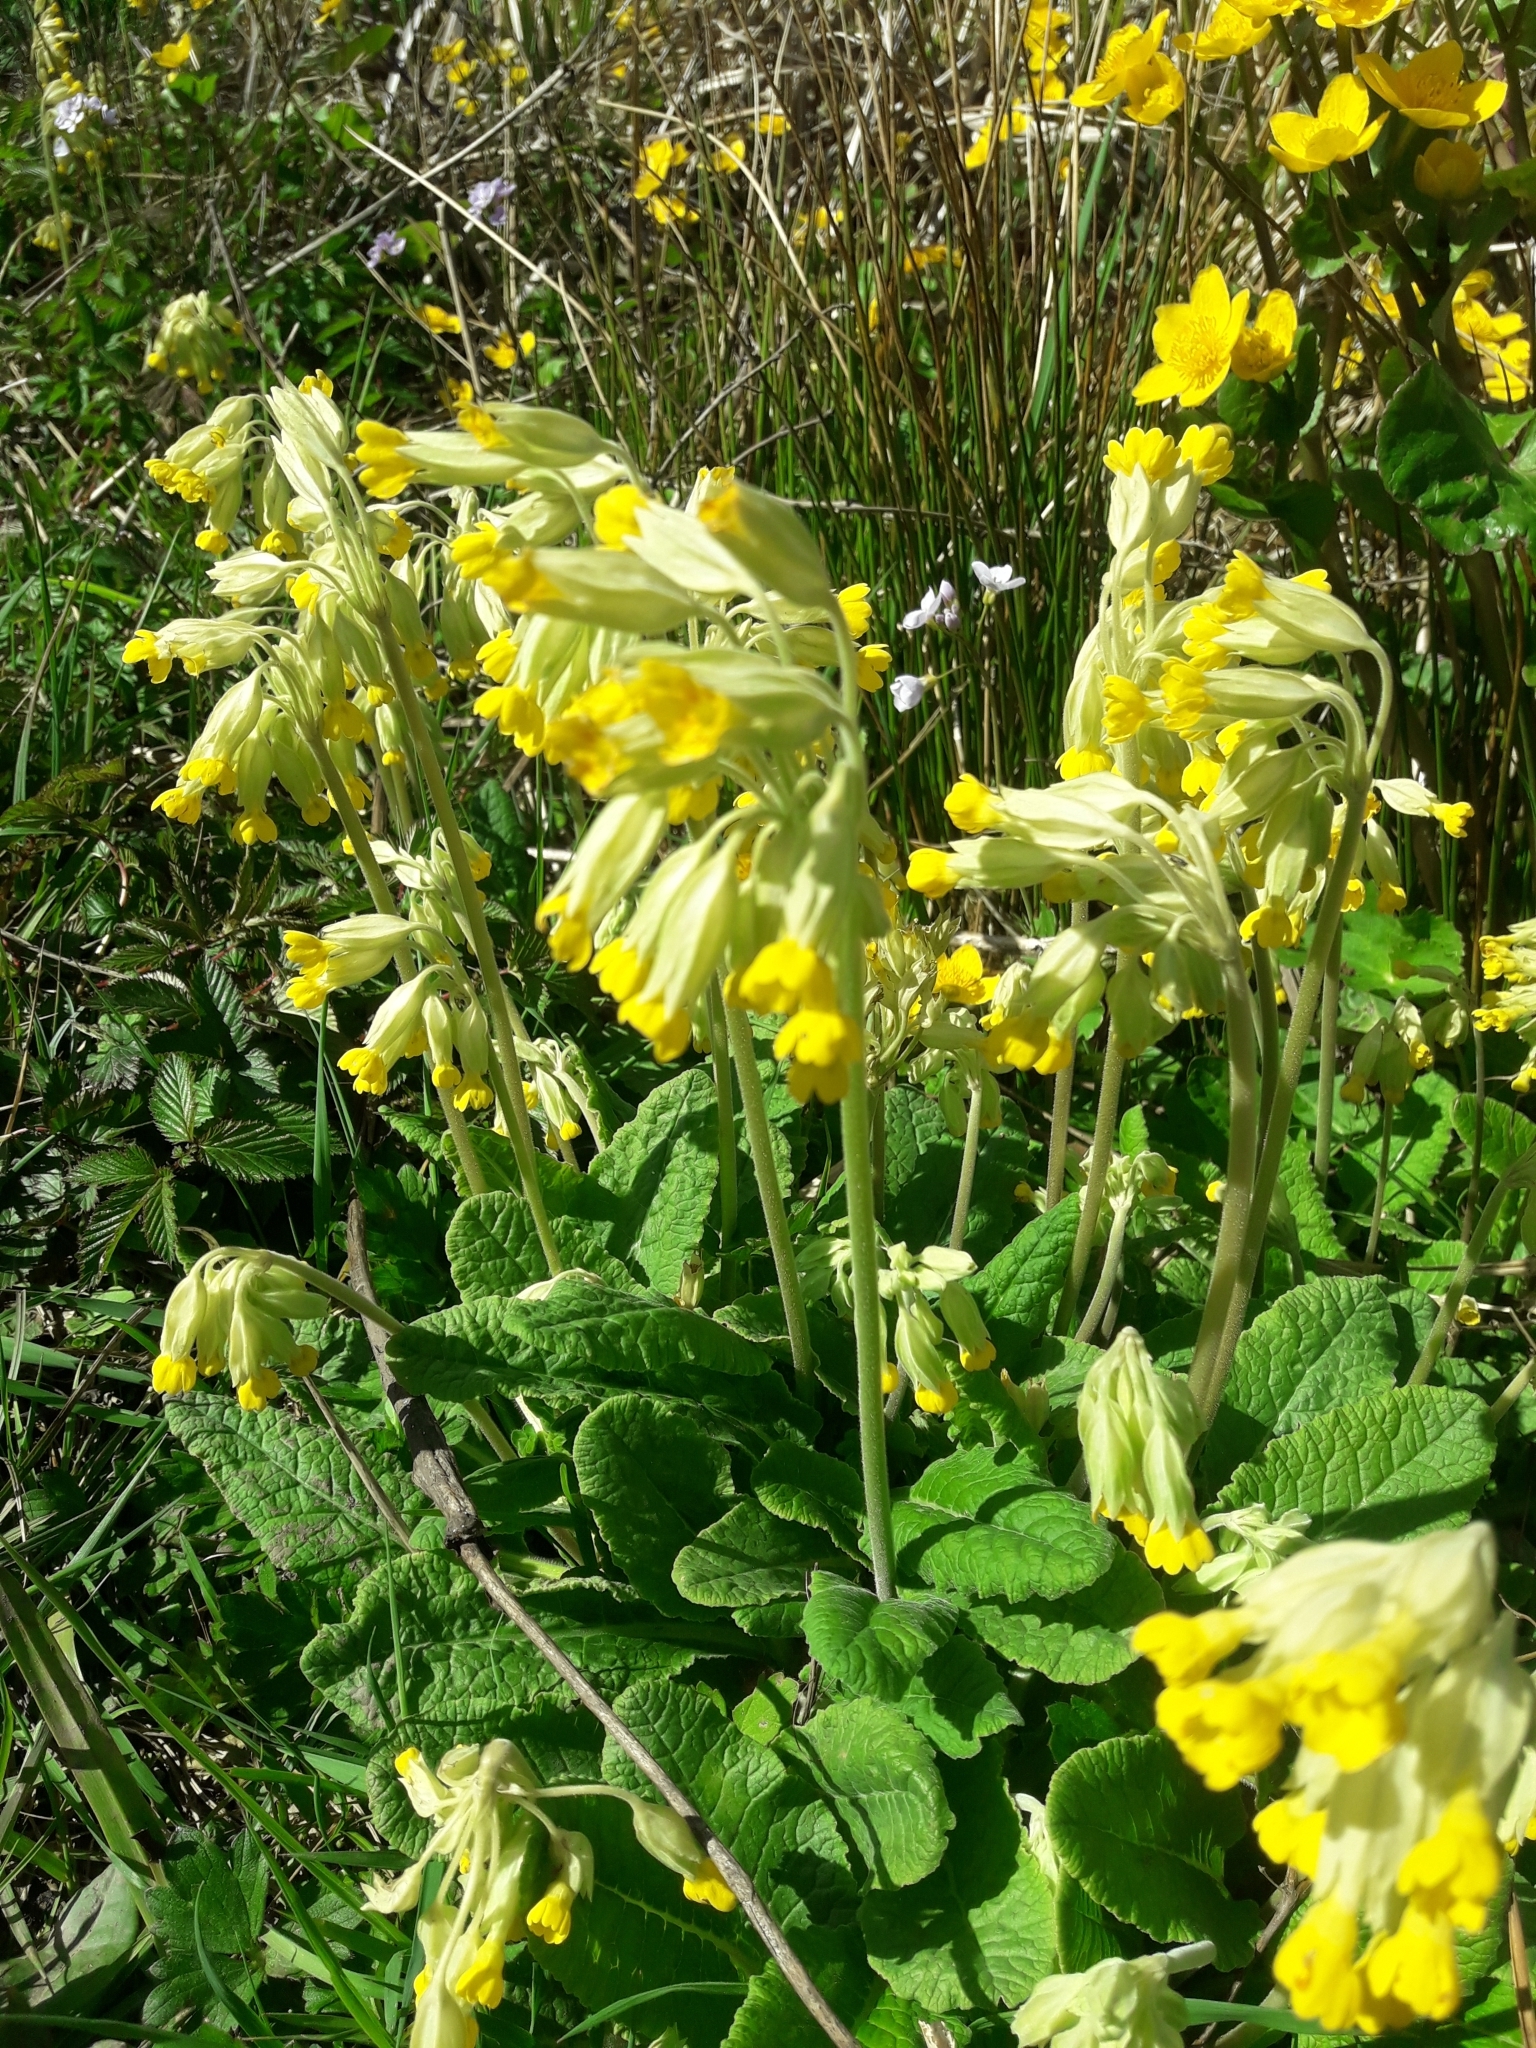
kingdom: Plantae
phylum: Tracheophyta
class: Magnoliopsida
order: Ericales
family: Primulaceae
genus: Primula
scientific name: Primula veris
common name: Cowslip
